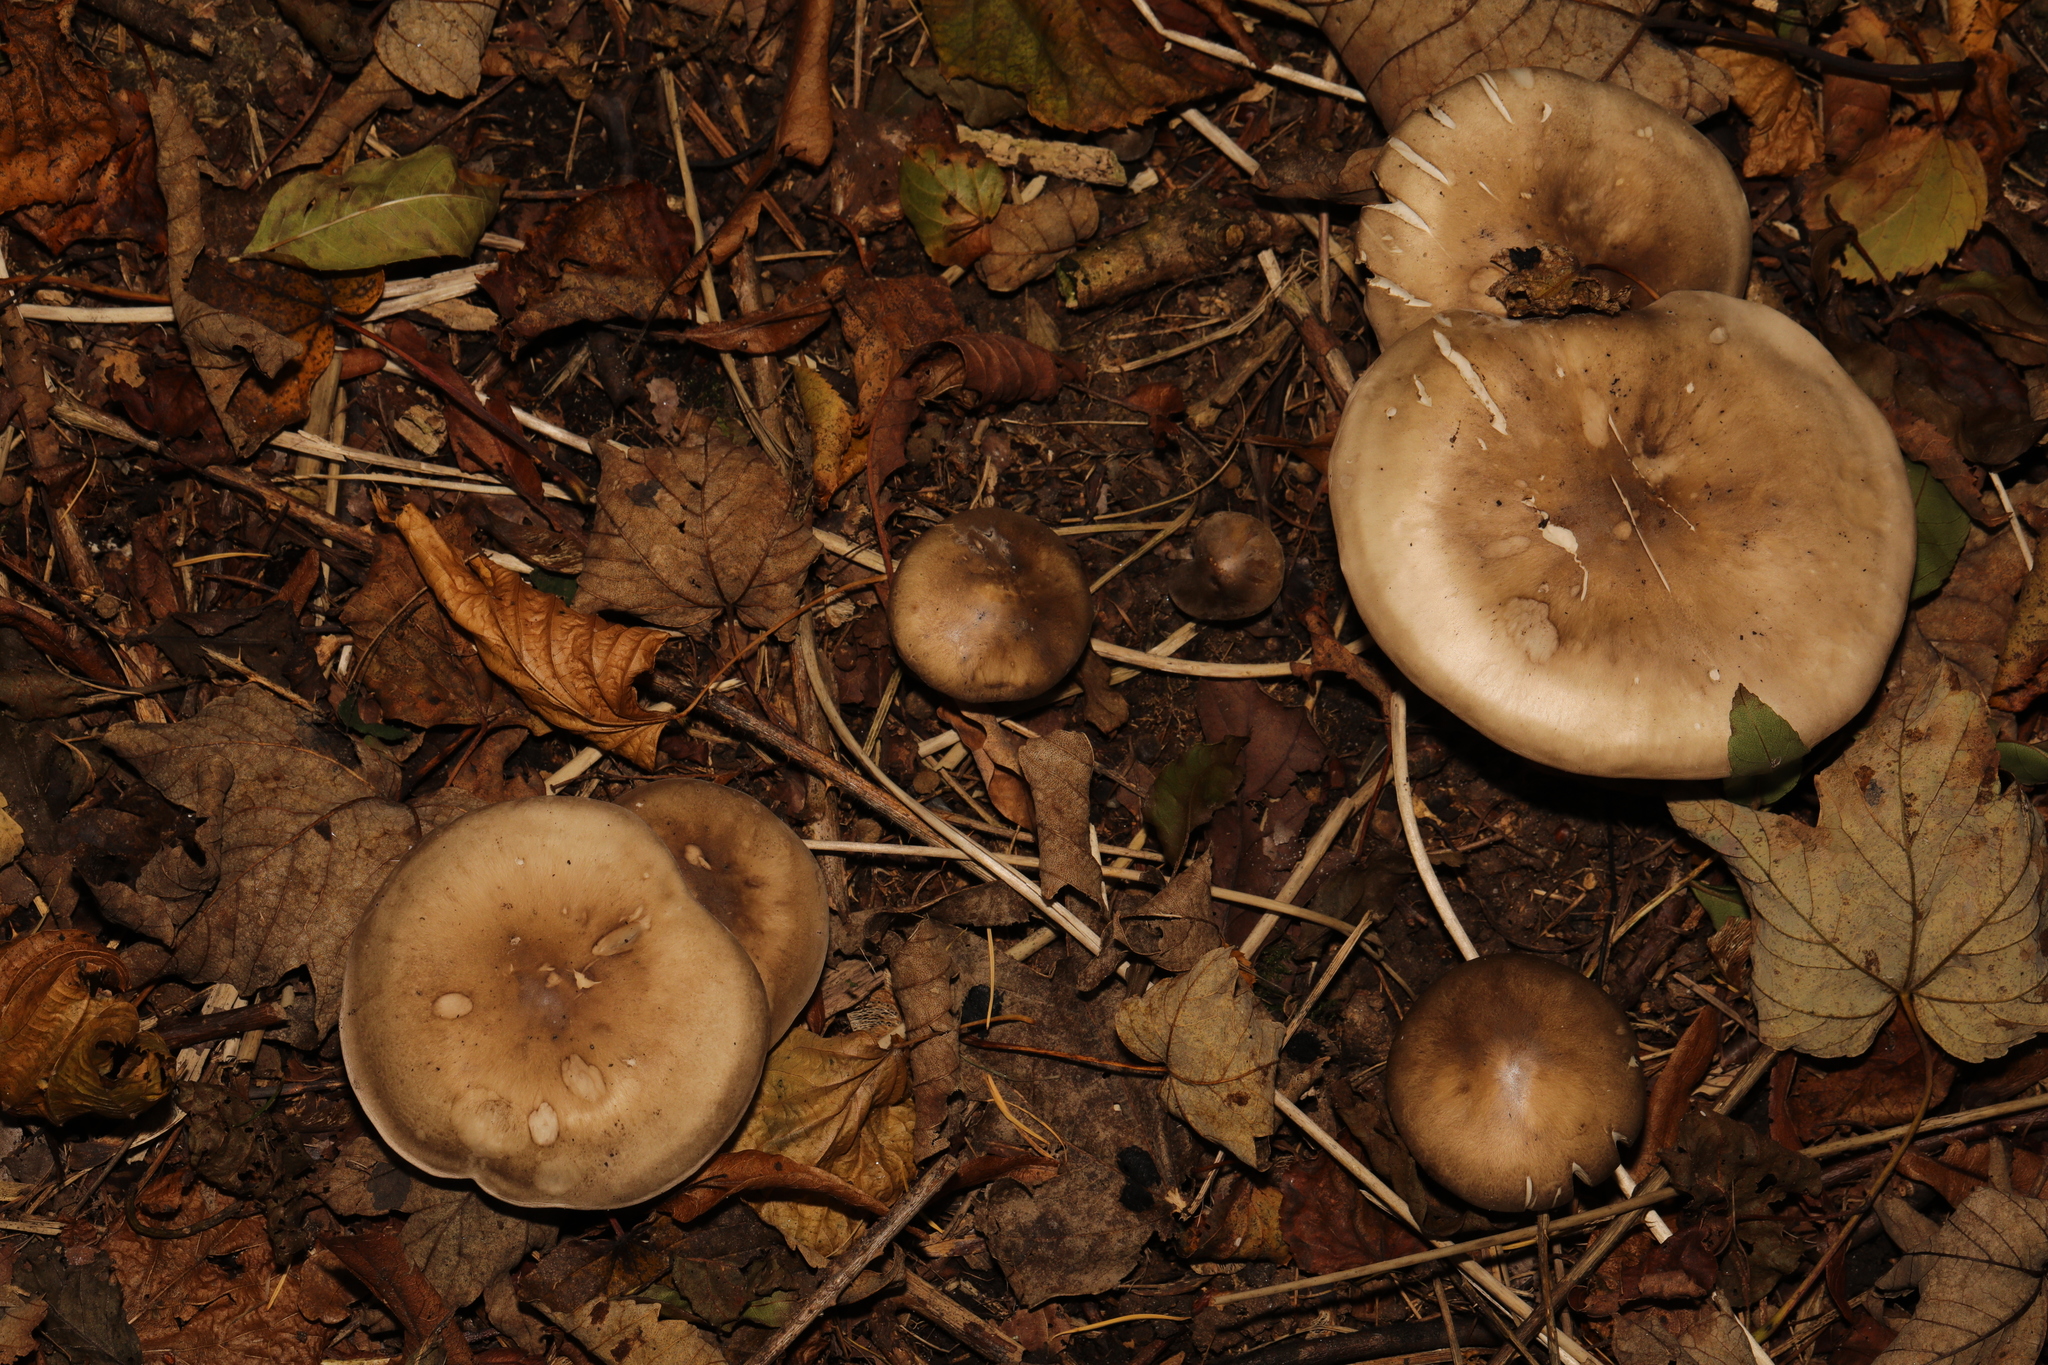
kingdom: Fungi
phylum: Basidiomycota
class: Agaricomycetes
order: Agaricales
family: Tricholomataceae
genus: Clitocybe
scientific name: Clitocybe nebularis
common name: Clouded agaric
